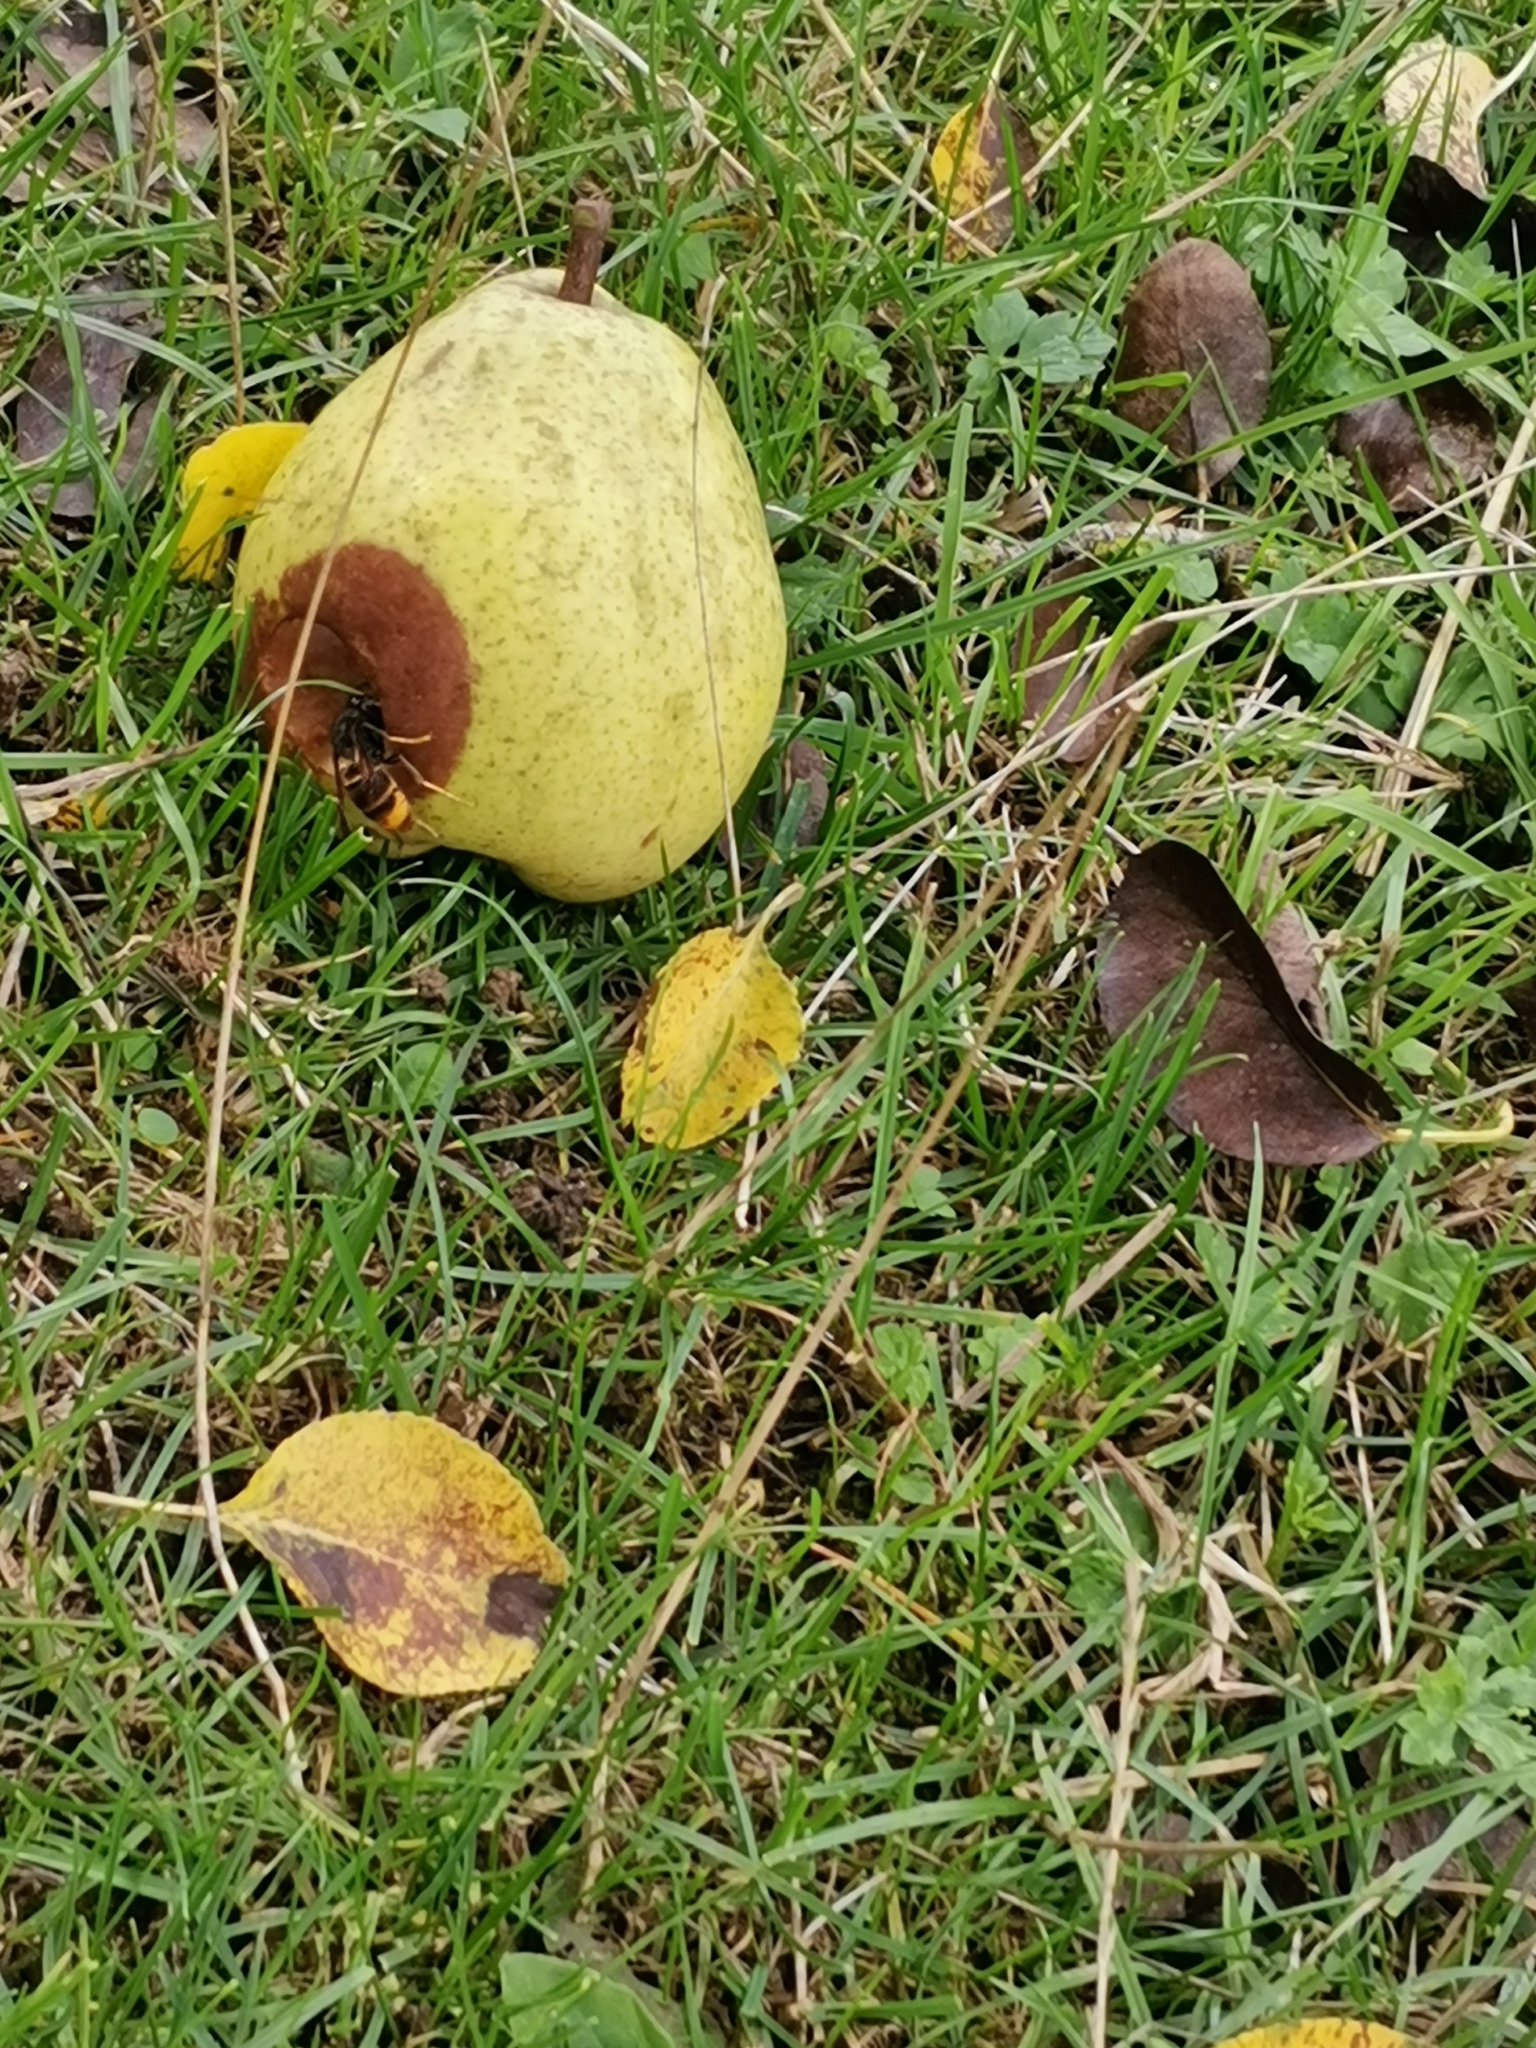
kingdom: Animalia
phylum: Arthropoda
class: Insecta
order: Hymenoptera
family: Vespidae
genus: Vespa
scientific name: Vespa velutina
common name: Asian hornet
